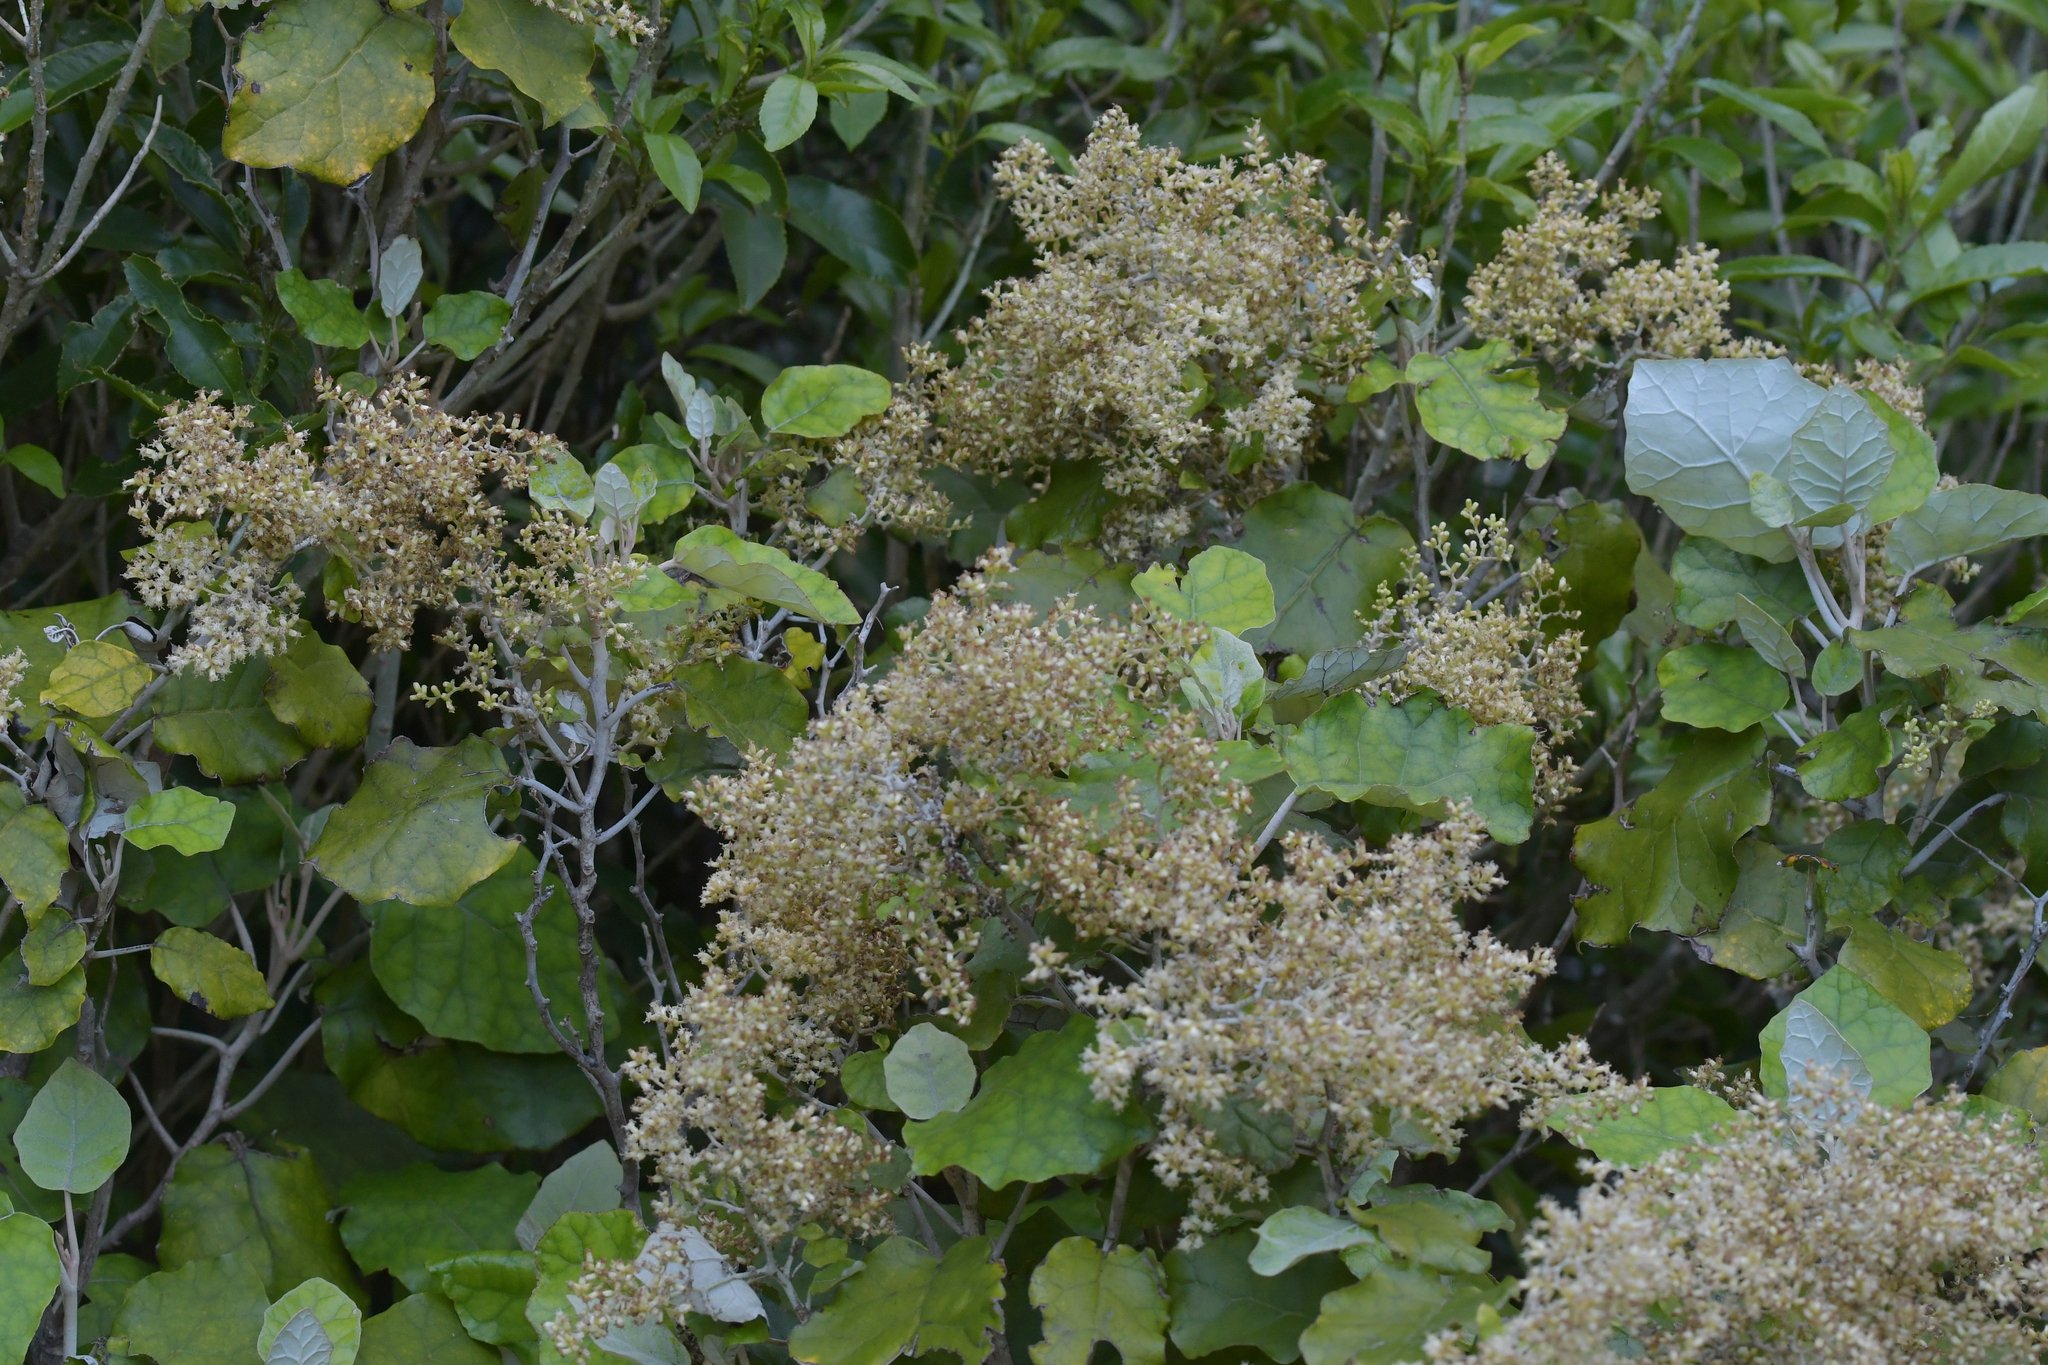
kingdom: Plantae
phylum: Tracheophyta
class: Magnoliopsida
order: Asterales
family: Asteraceae
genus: Brachyglottis
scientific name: Brachyglottis repanda
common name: Hedge ragwort
